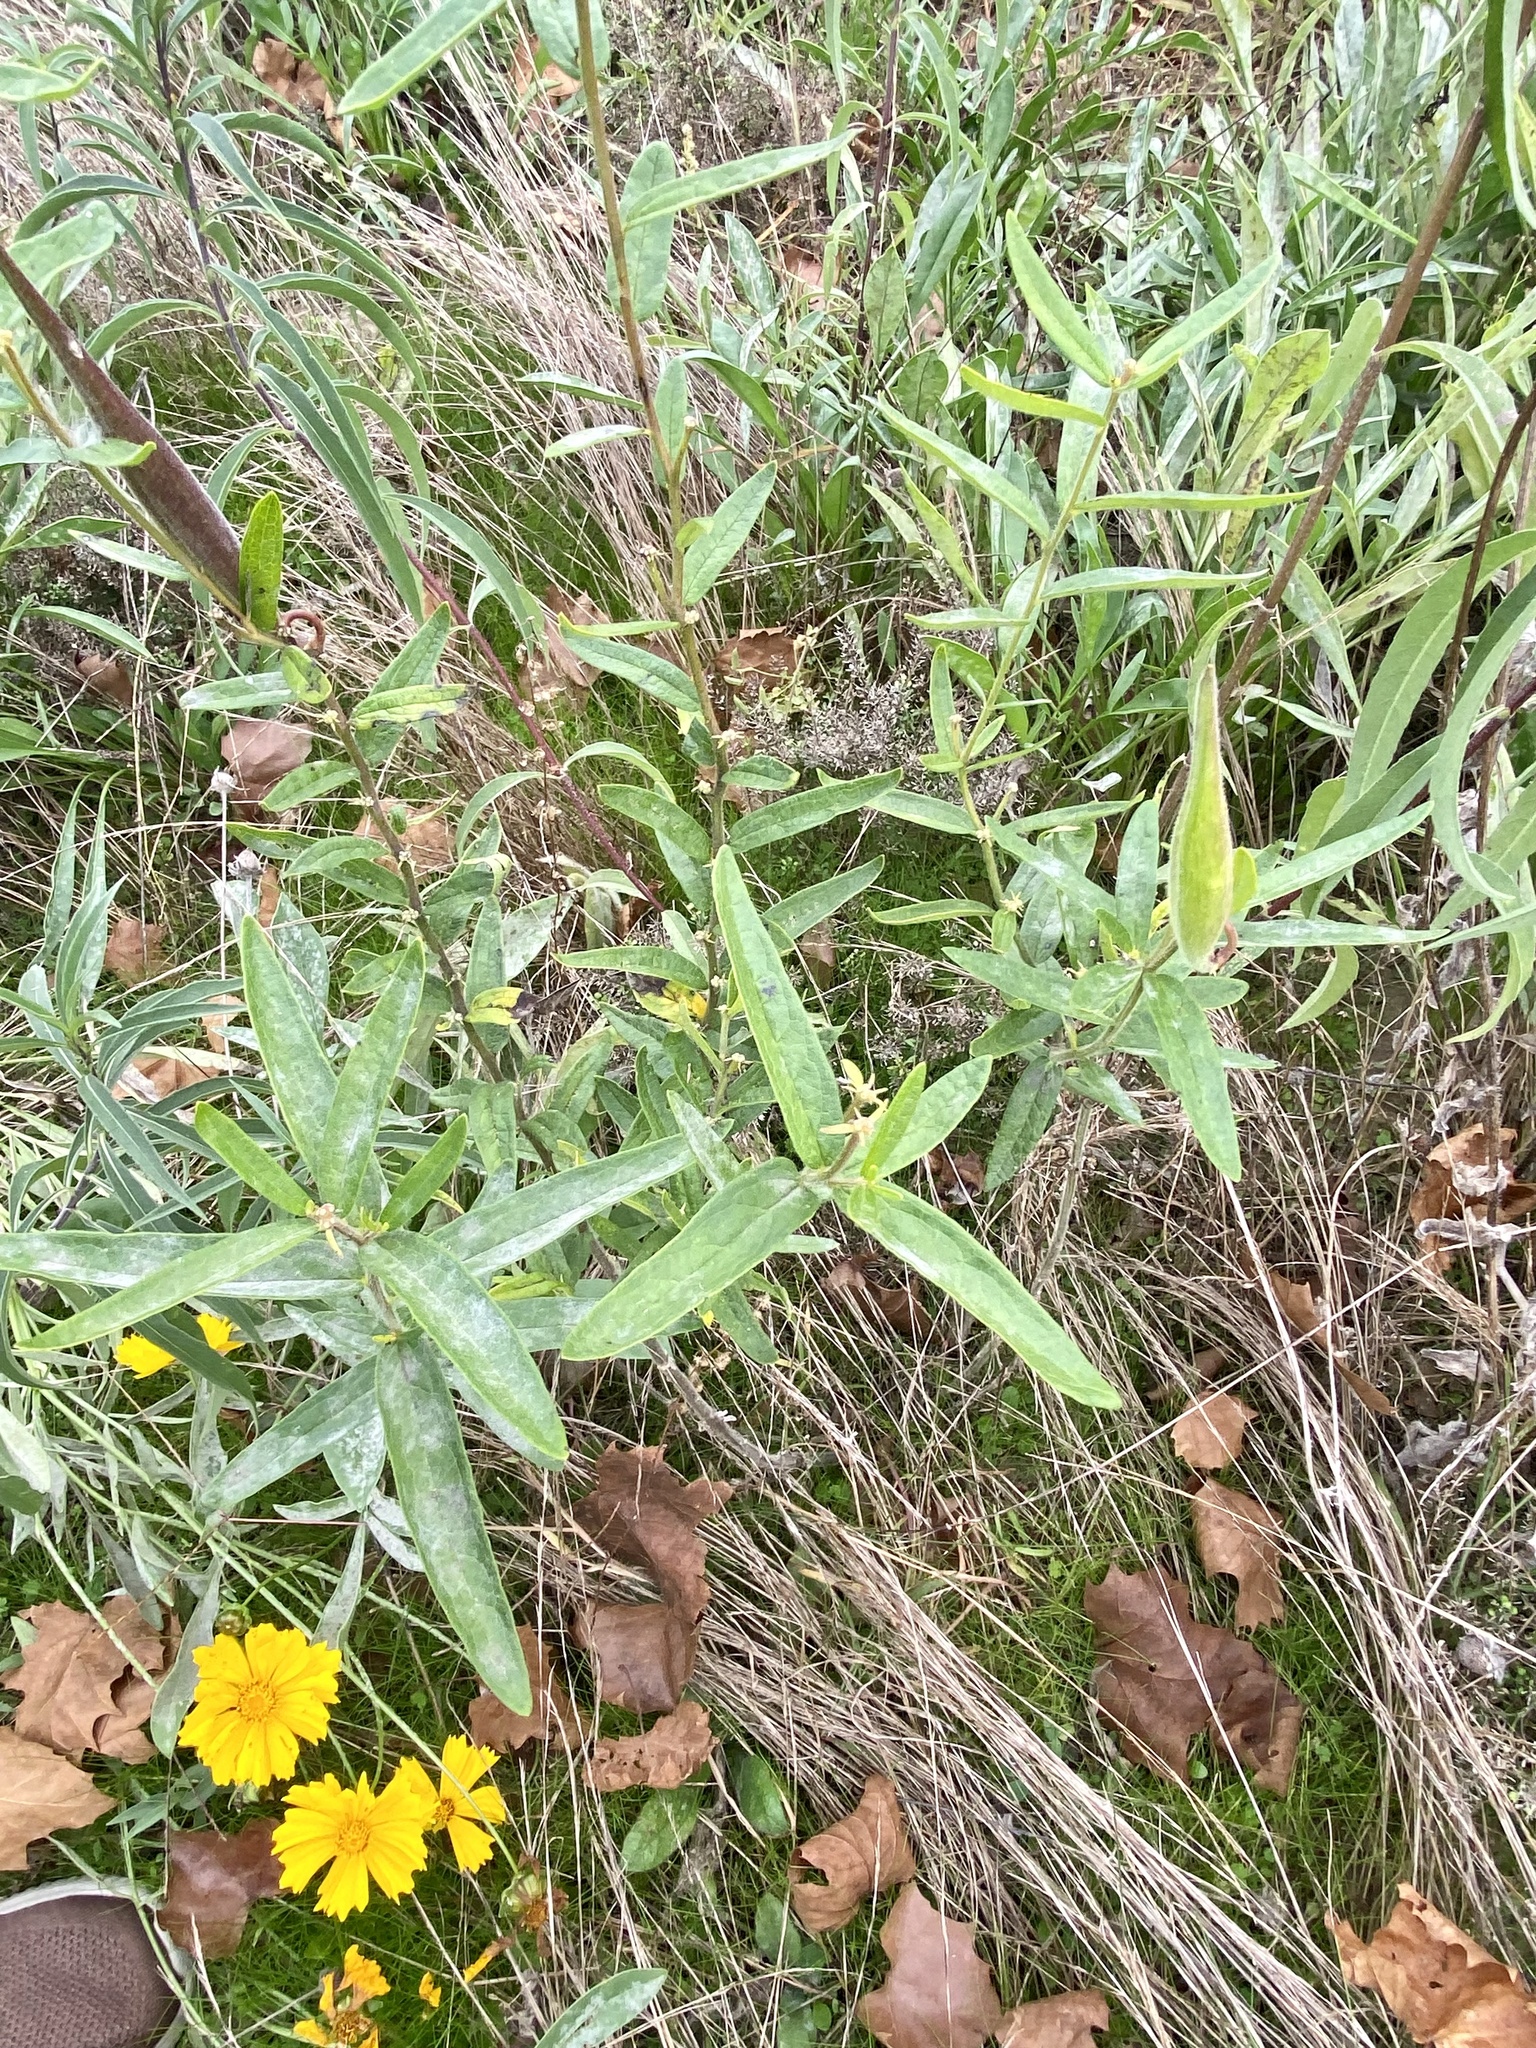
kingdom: Plantae
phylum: Tracheophyta
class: Magnoliopsida
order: Gentianales
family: Apocynaceae
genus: Asclepias
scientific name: Asclepias tuberosa
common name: Butterfly milkweed
